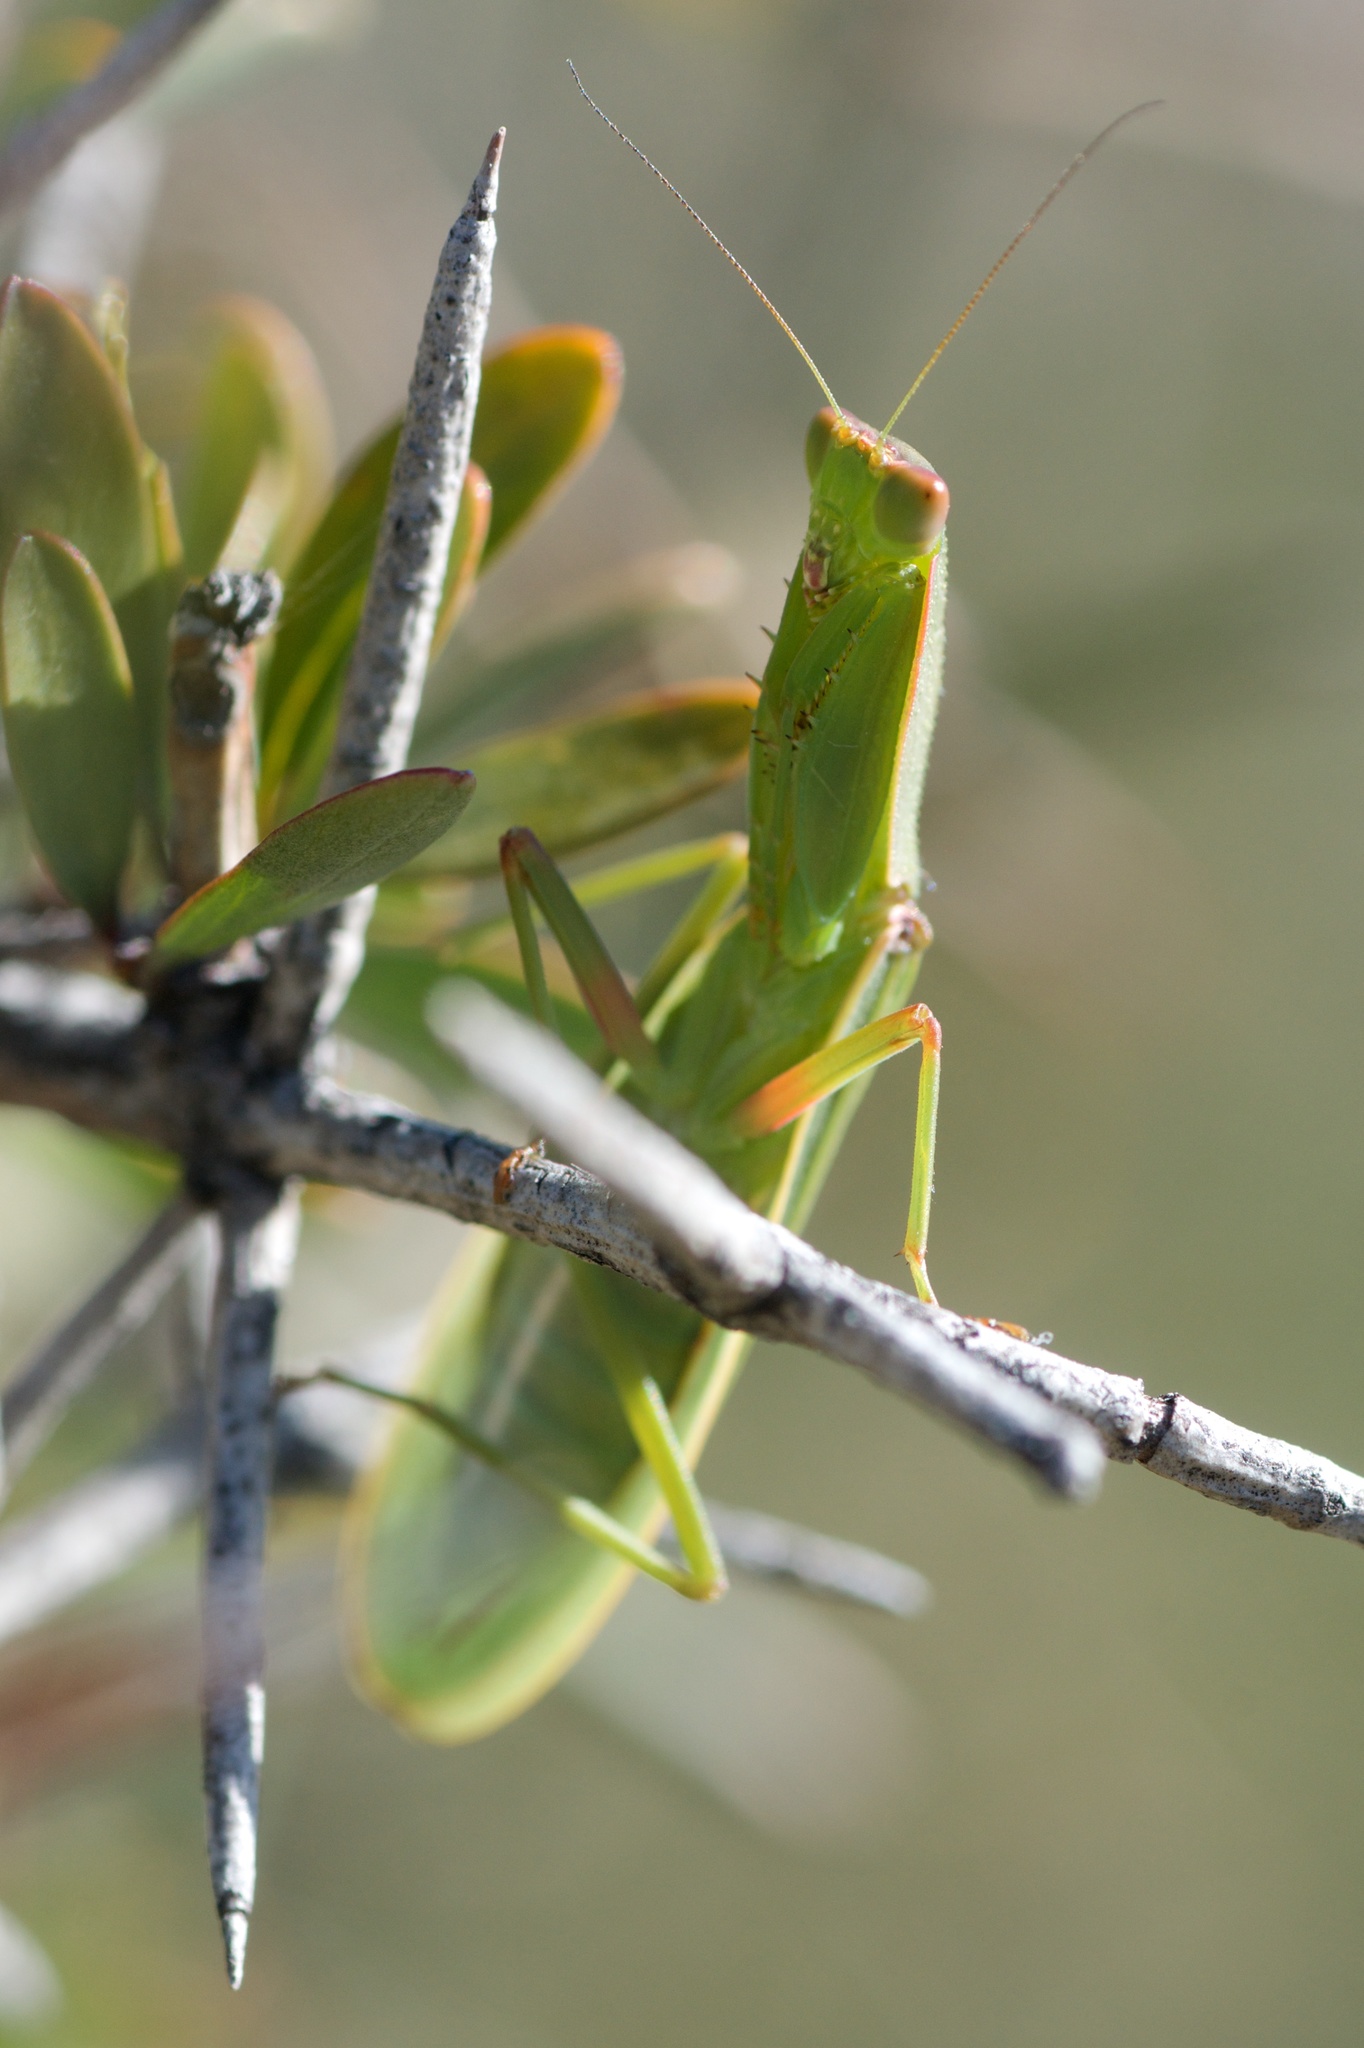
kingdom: Animalia
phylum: Arthropoda
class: Insecta
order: Mantodea
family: Mantidae
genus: Orthodera
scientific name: Orthodera novaezealandiae
